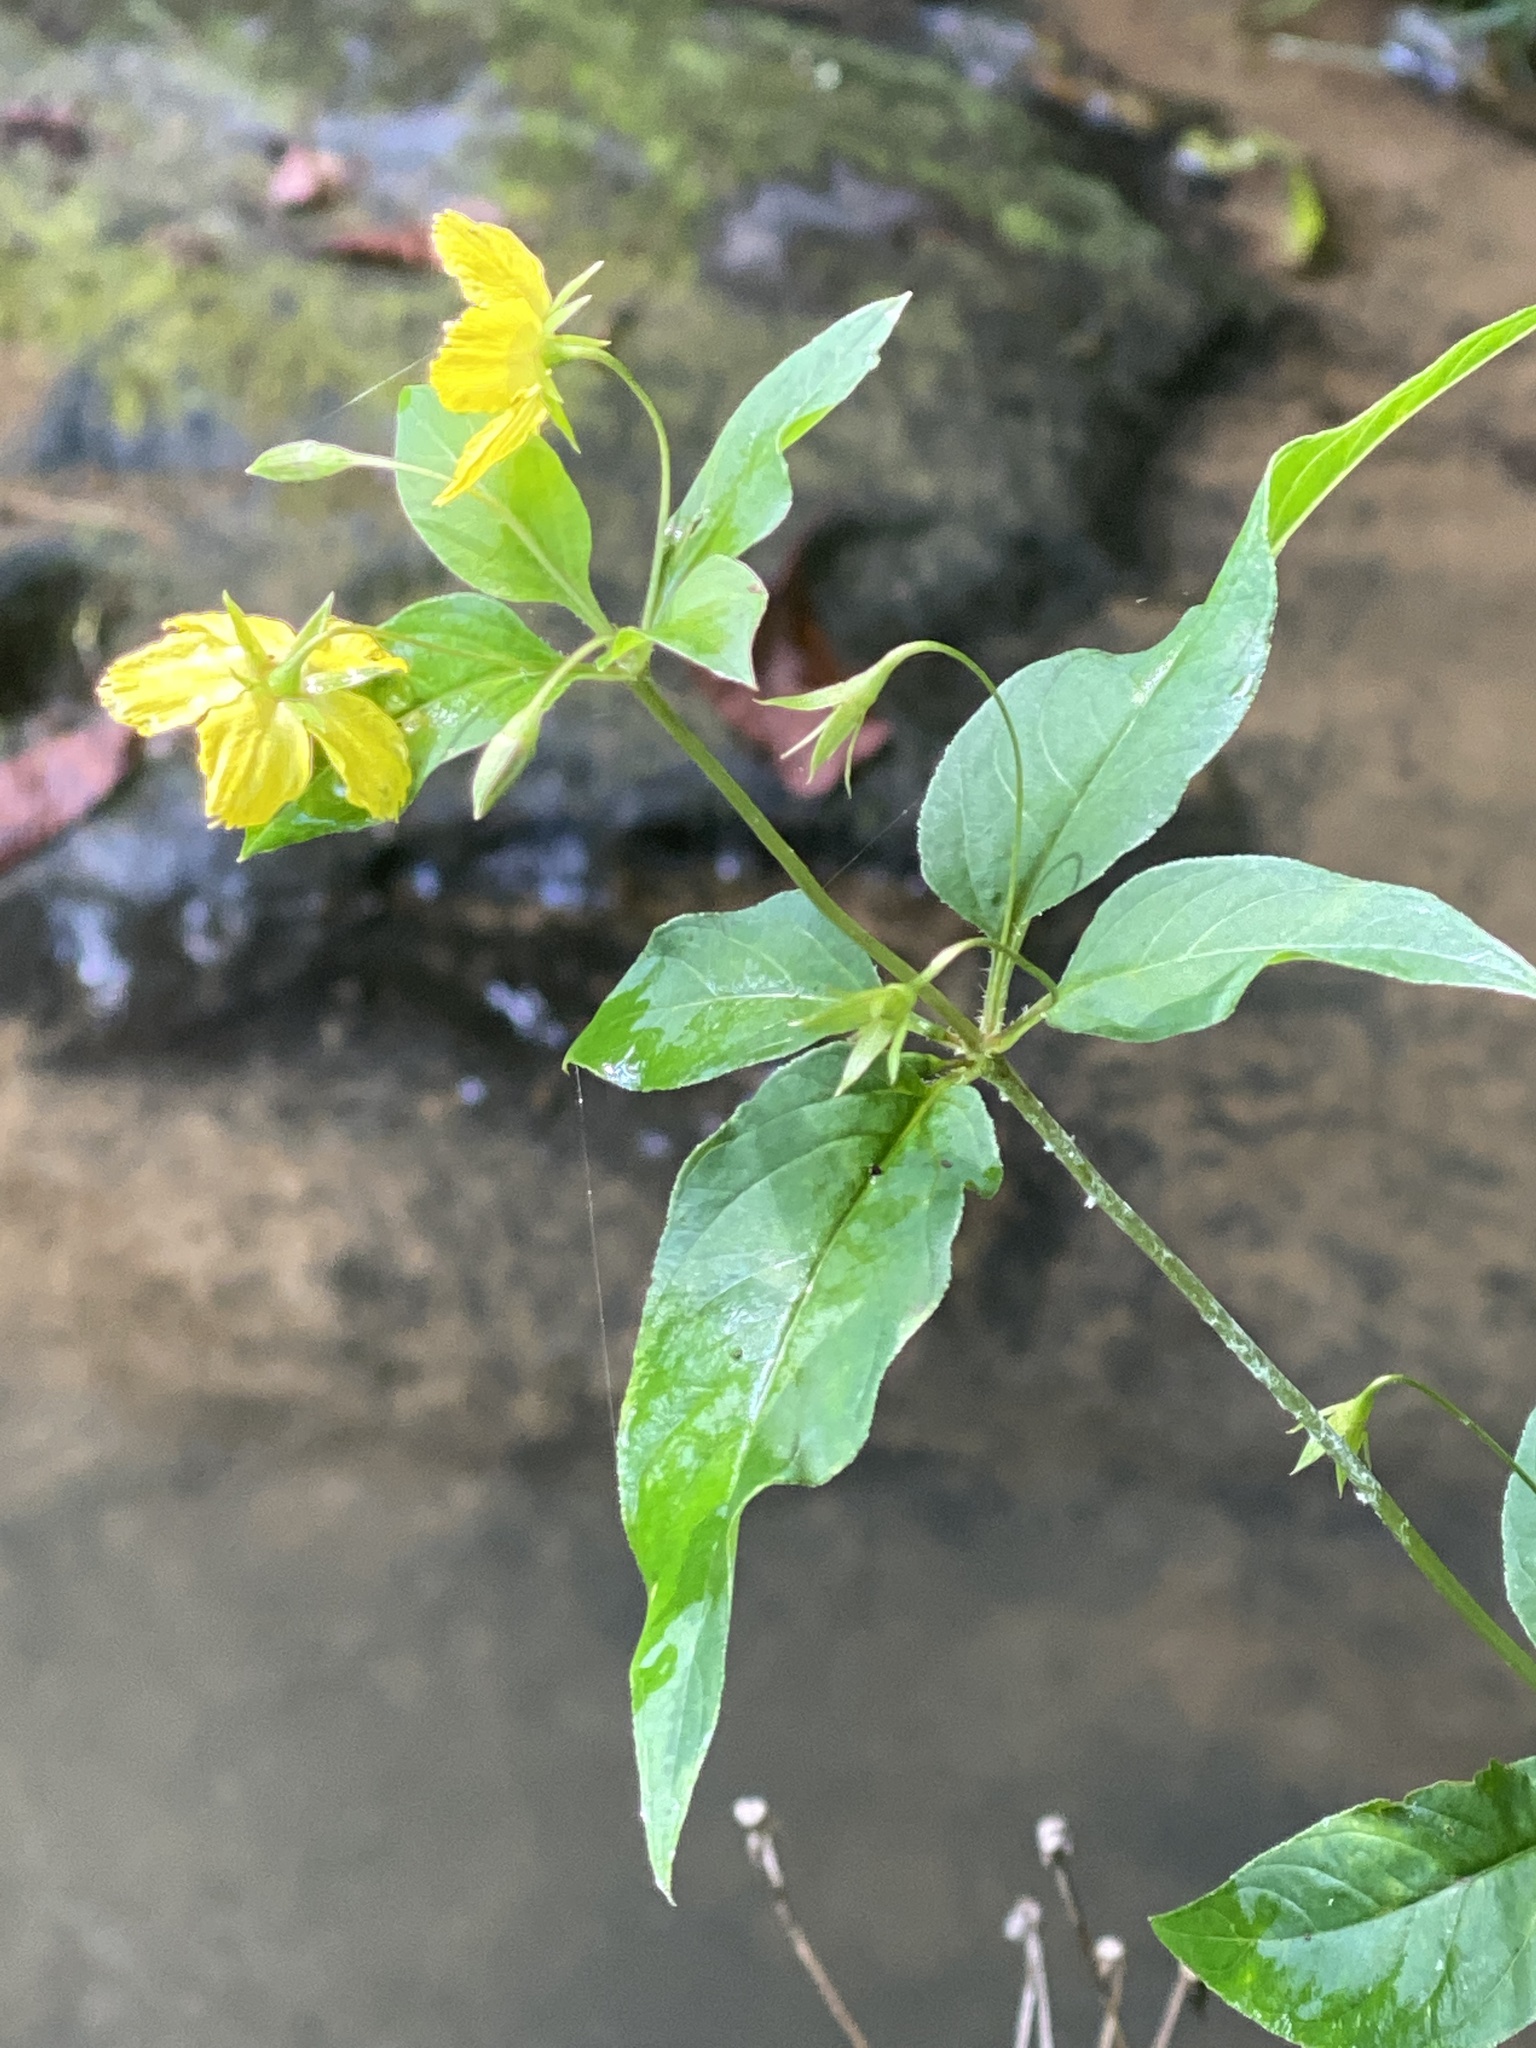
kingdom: Plantae
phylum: Tracheophyta
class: Magnoliopsida
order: Ericales
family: Primulaceae
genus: Lysimachia
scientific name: Lysimachia ciliata
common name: Fringed loosestrife
